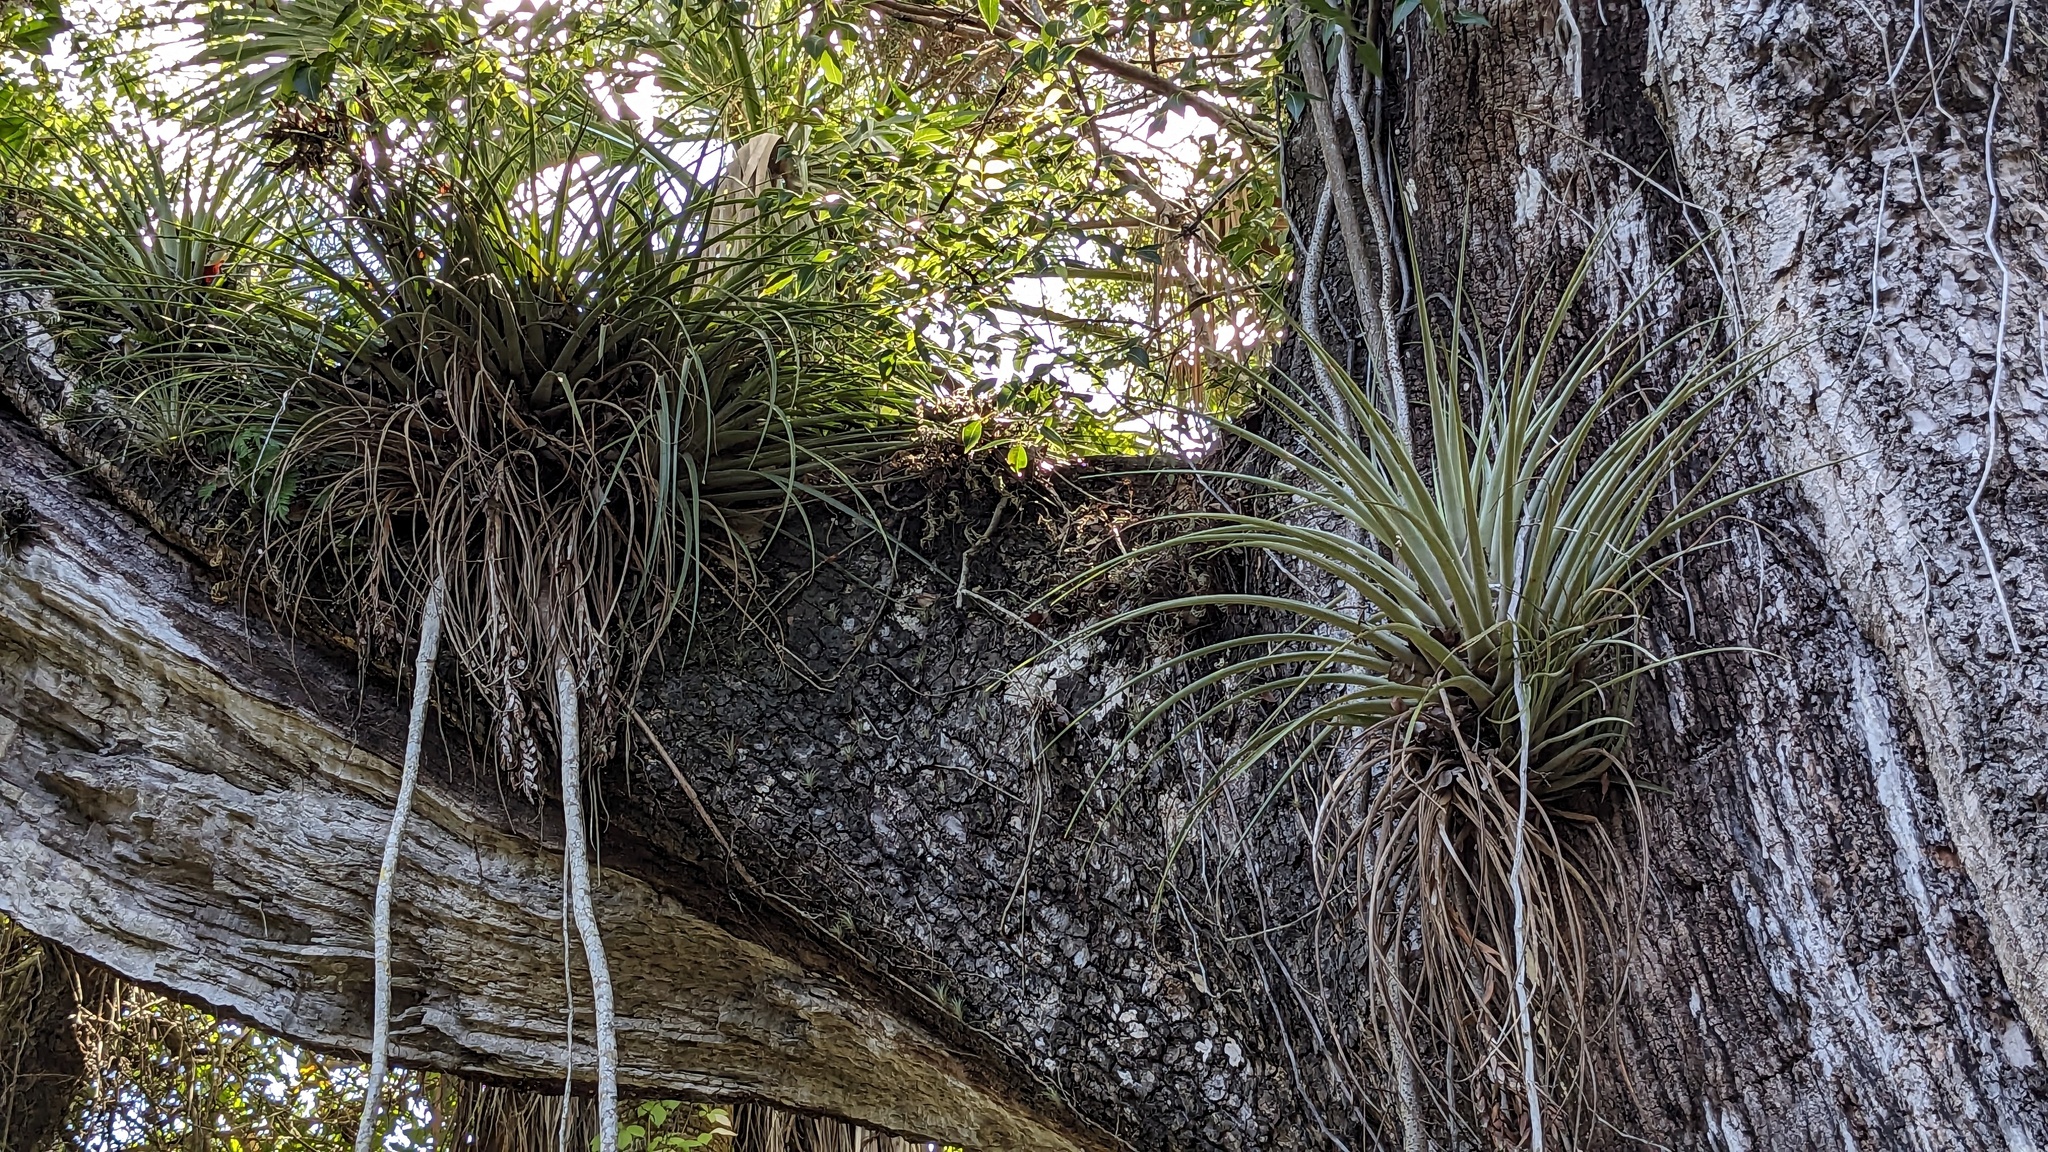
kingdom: Plantae
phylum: Tracheophyta
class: Liliopsida
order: Poales
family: Bromeliaceae
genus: Tillandsia
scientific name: Tillandsia fasciculata
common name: Giant airplant
